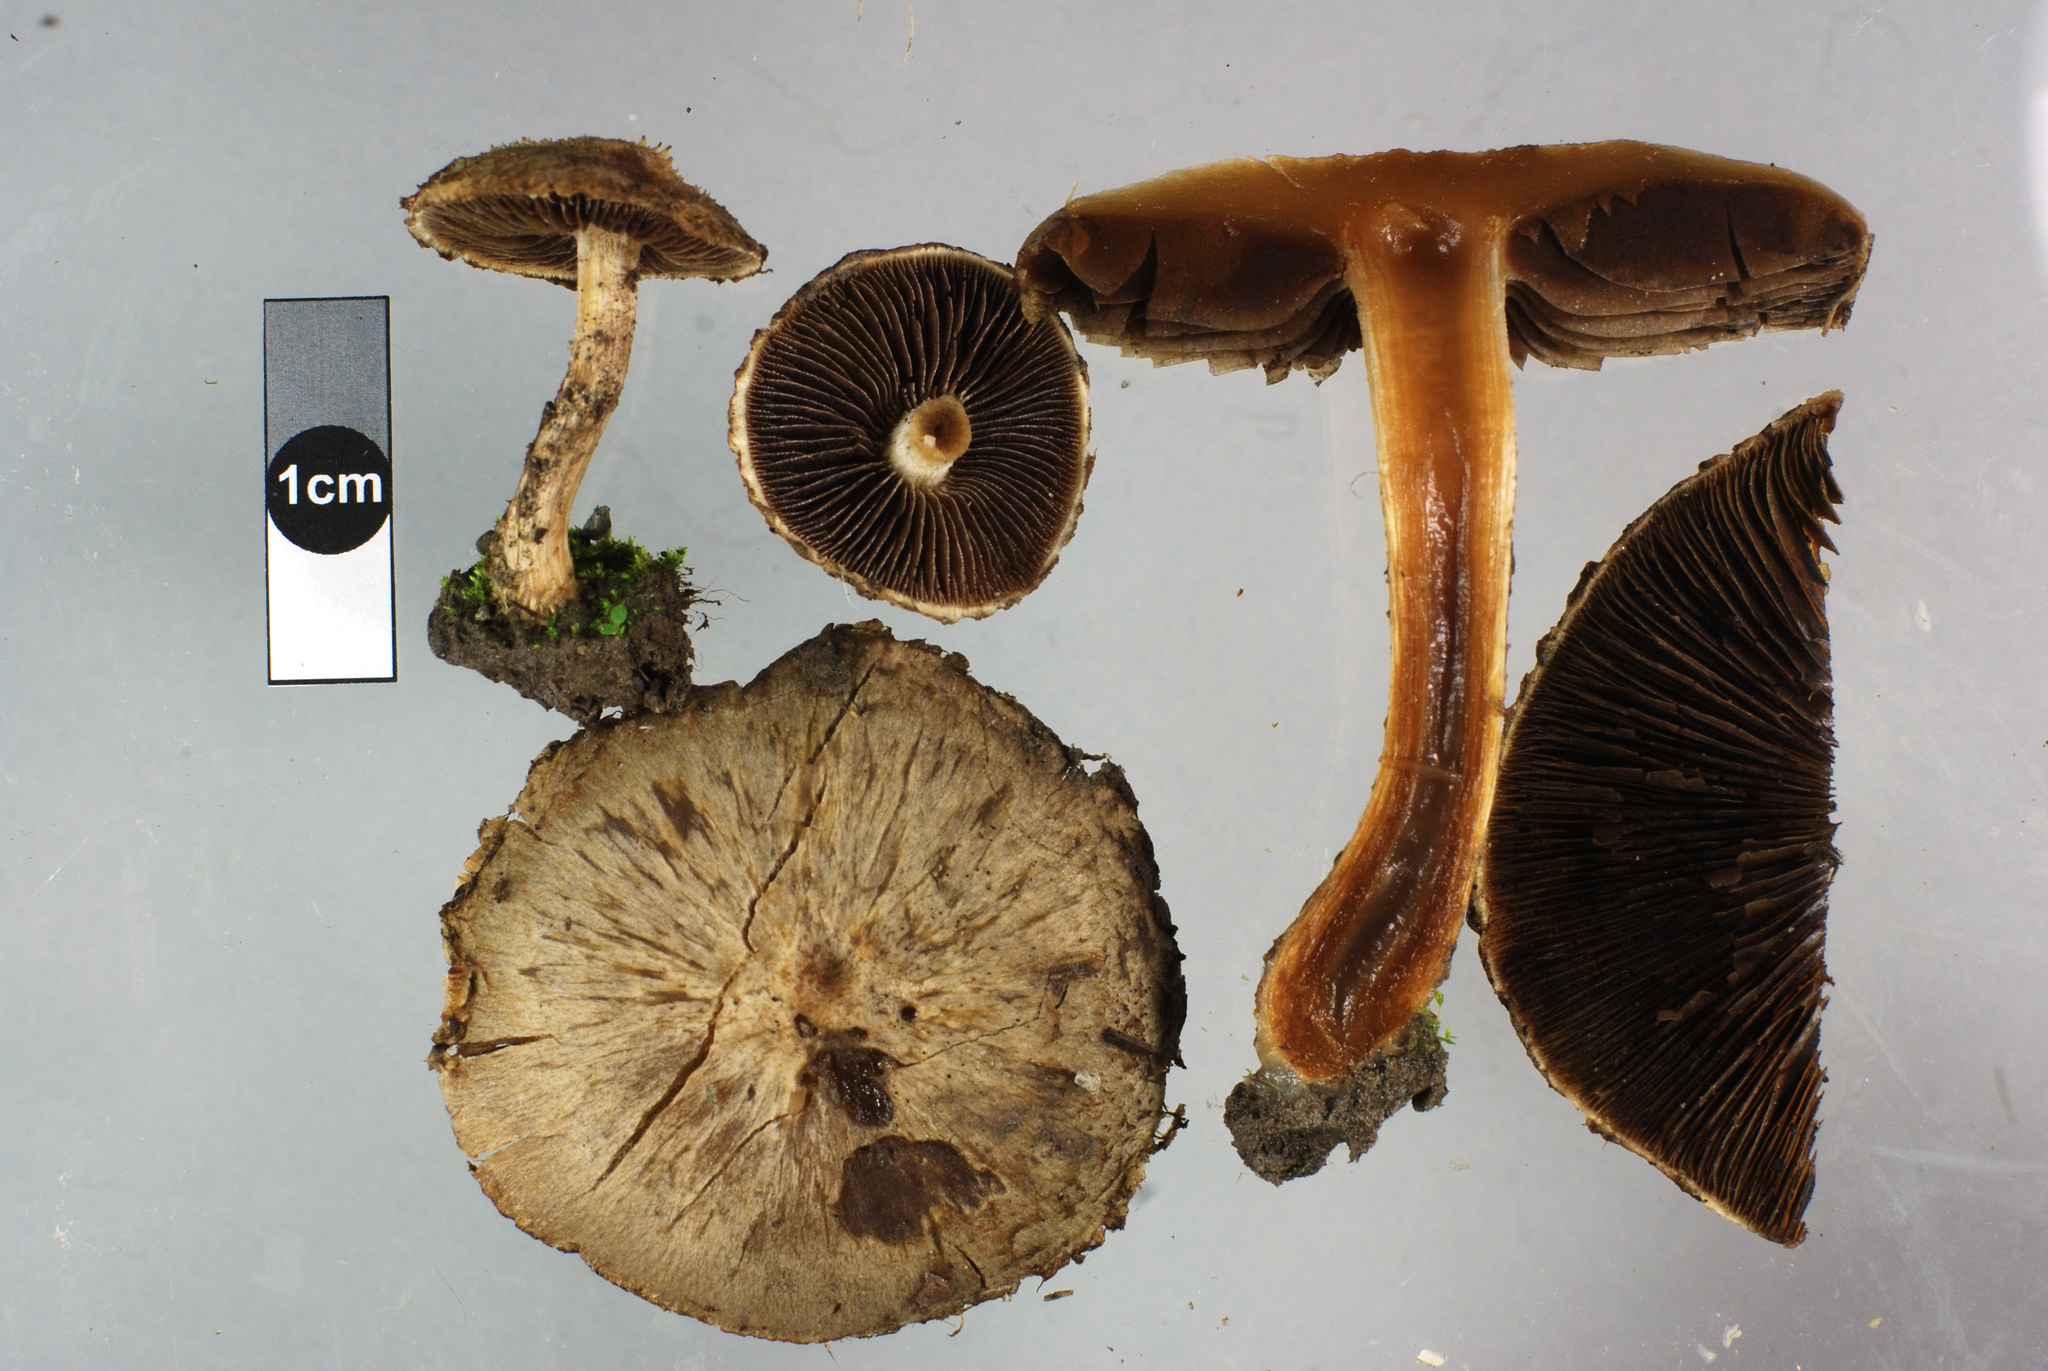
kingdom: Fungi
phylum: Basidiomycota
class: Agaricomycetes
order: Agaricales
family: Psathyrellaceae
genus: Lacrymaria
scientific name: Lacrymaria lacrymabunda
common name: Weeping widow
